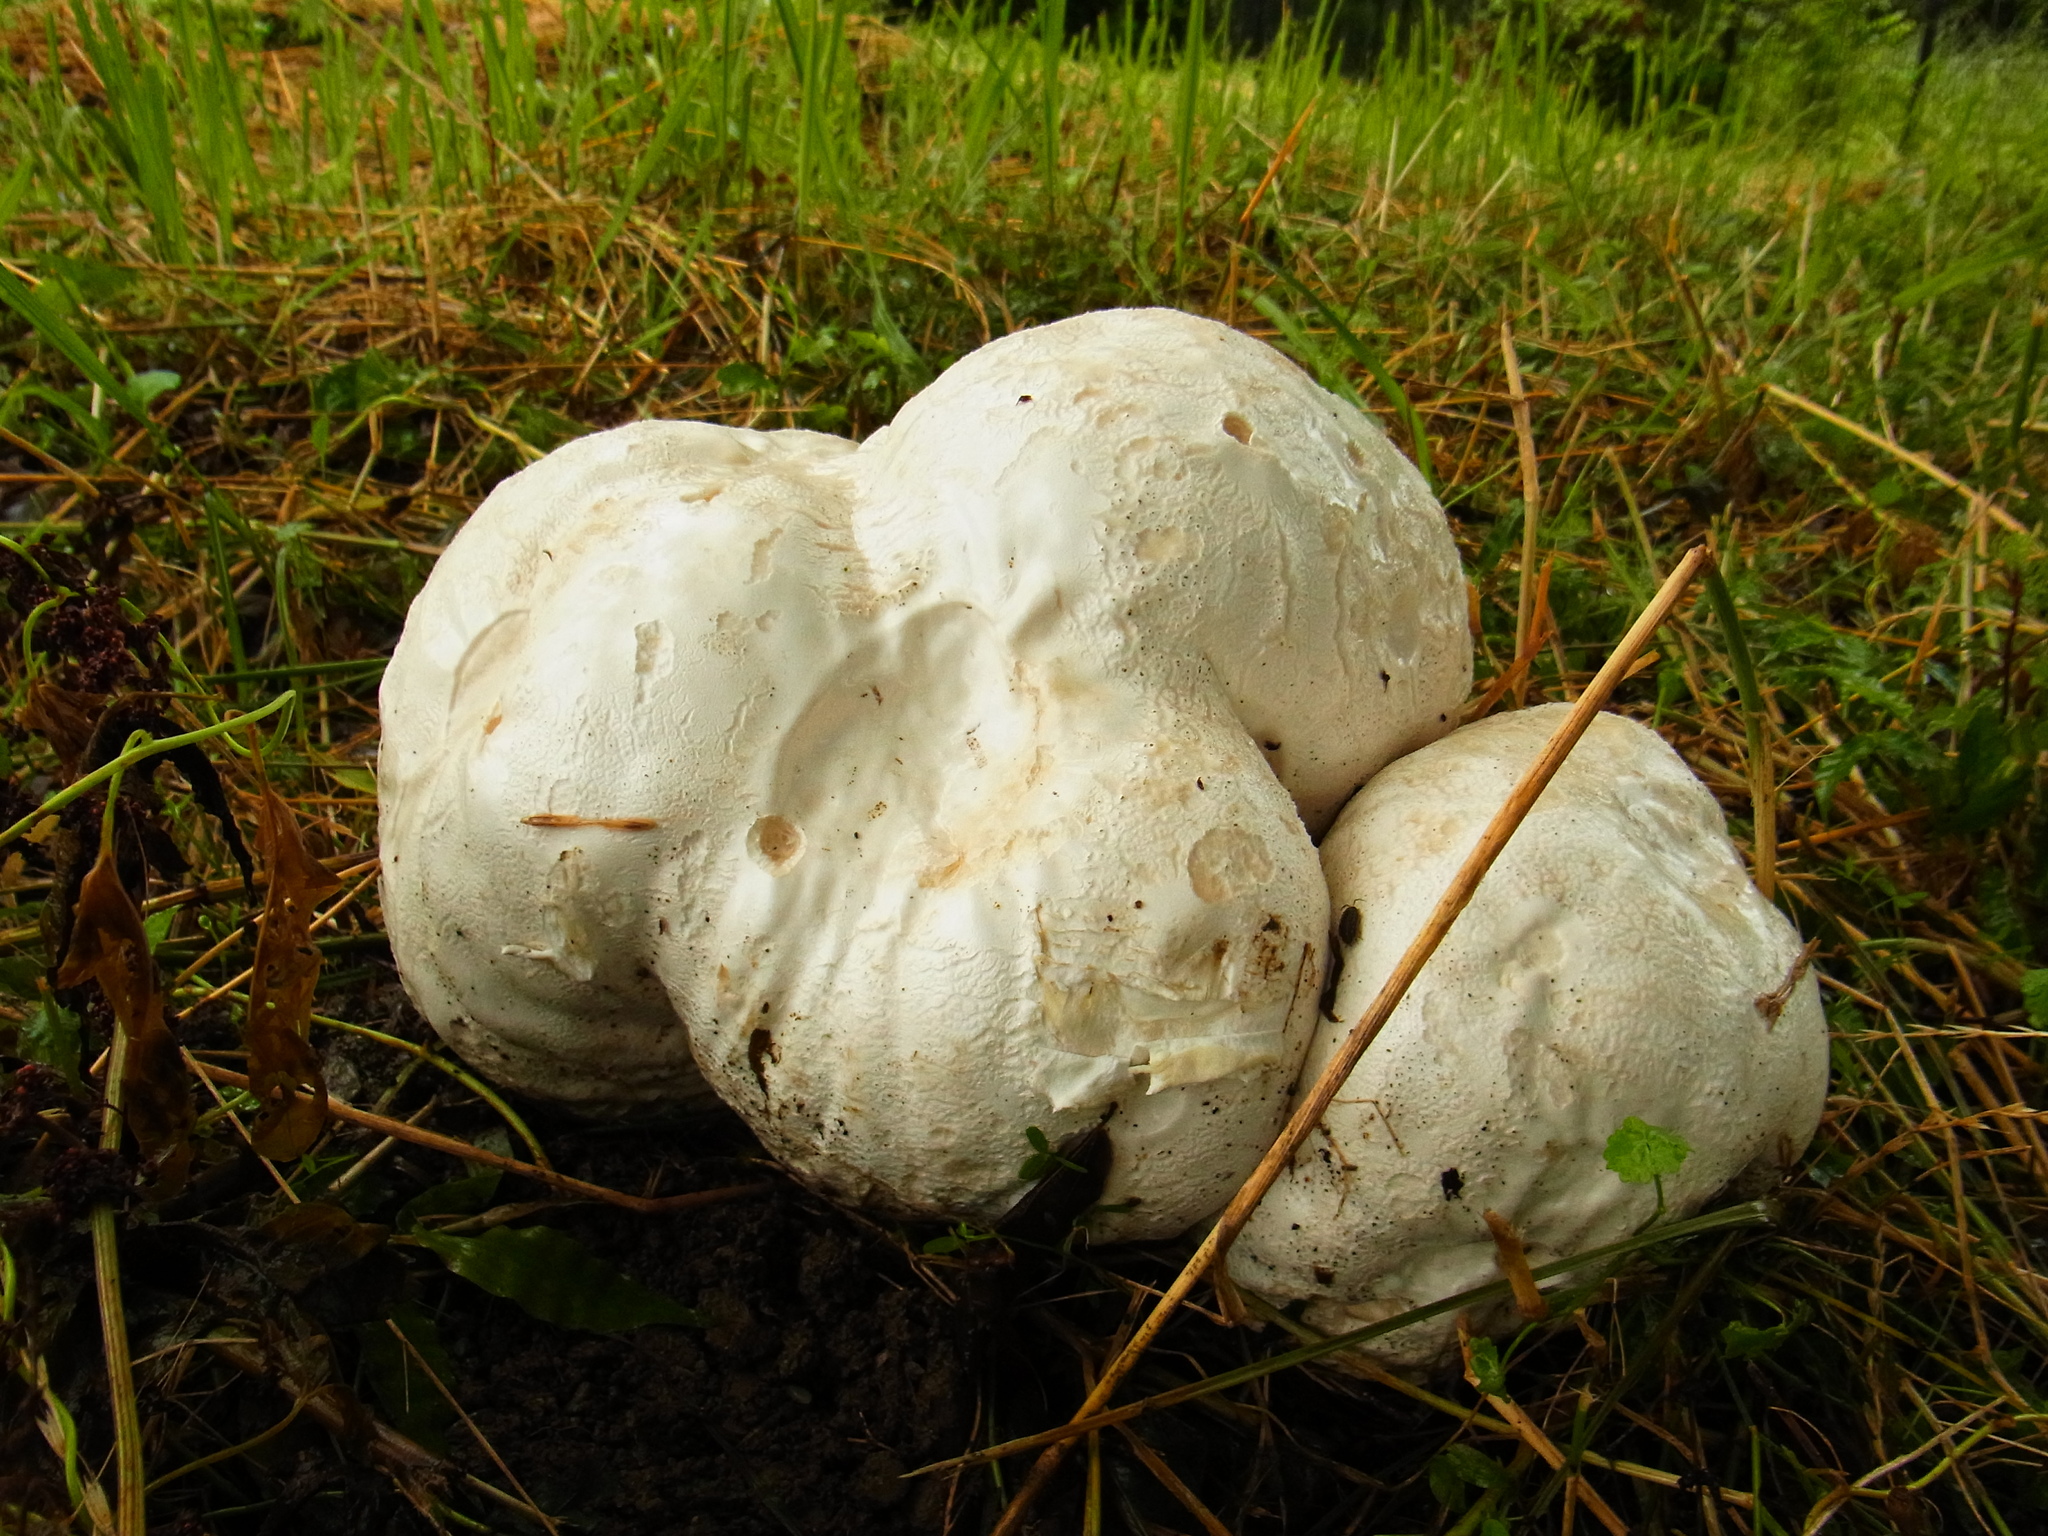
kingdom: Fungi
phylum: Basidiomycota
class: Agaricomycetes
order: Agaricales
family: Lycoperdaceae
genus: Calvatia
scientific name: Calvatia nipponica
